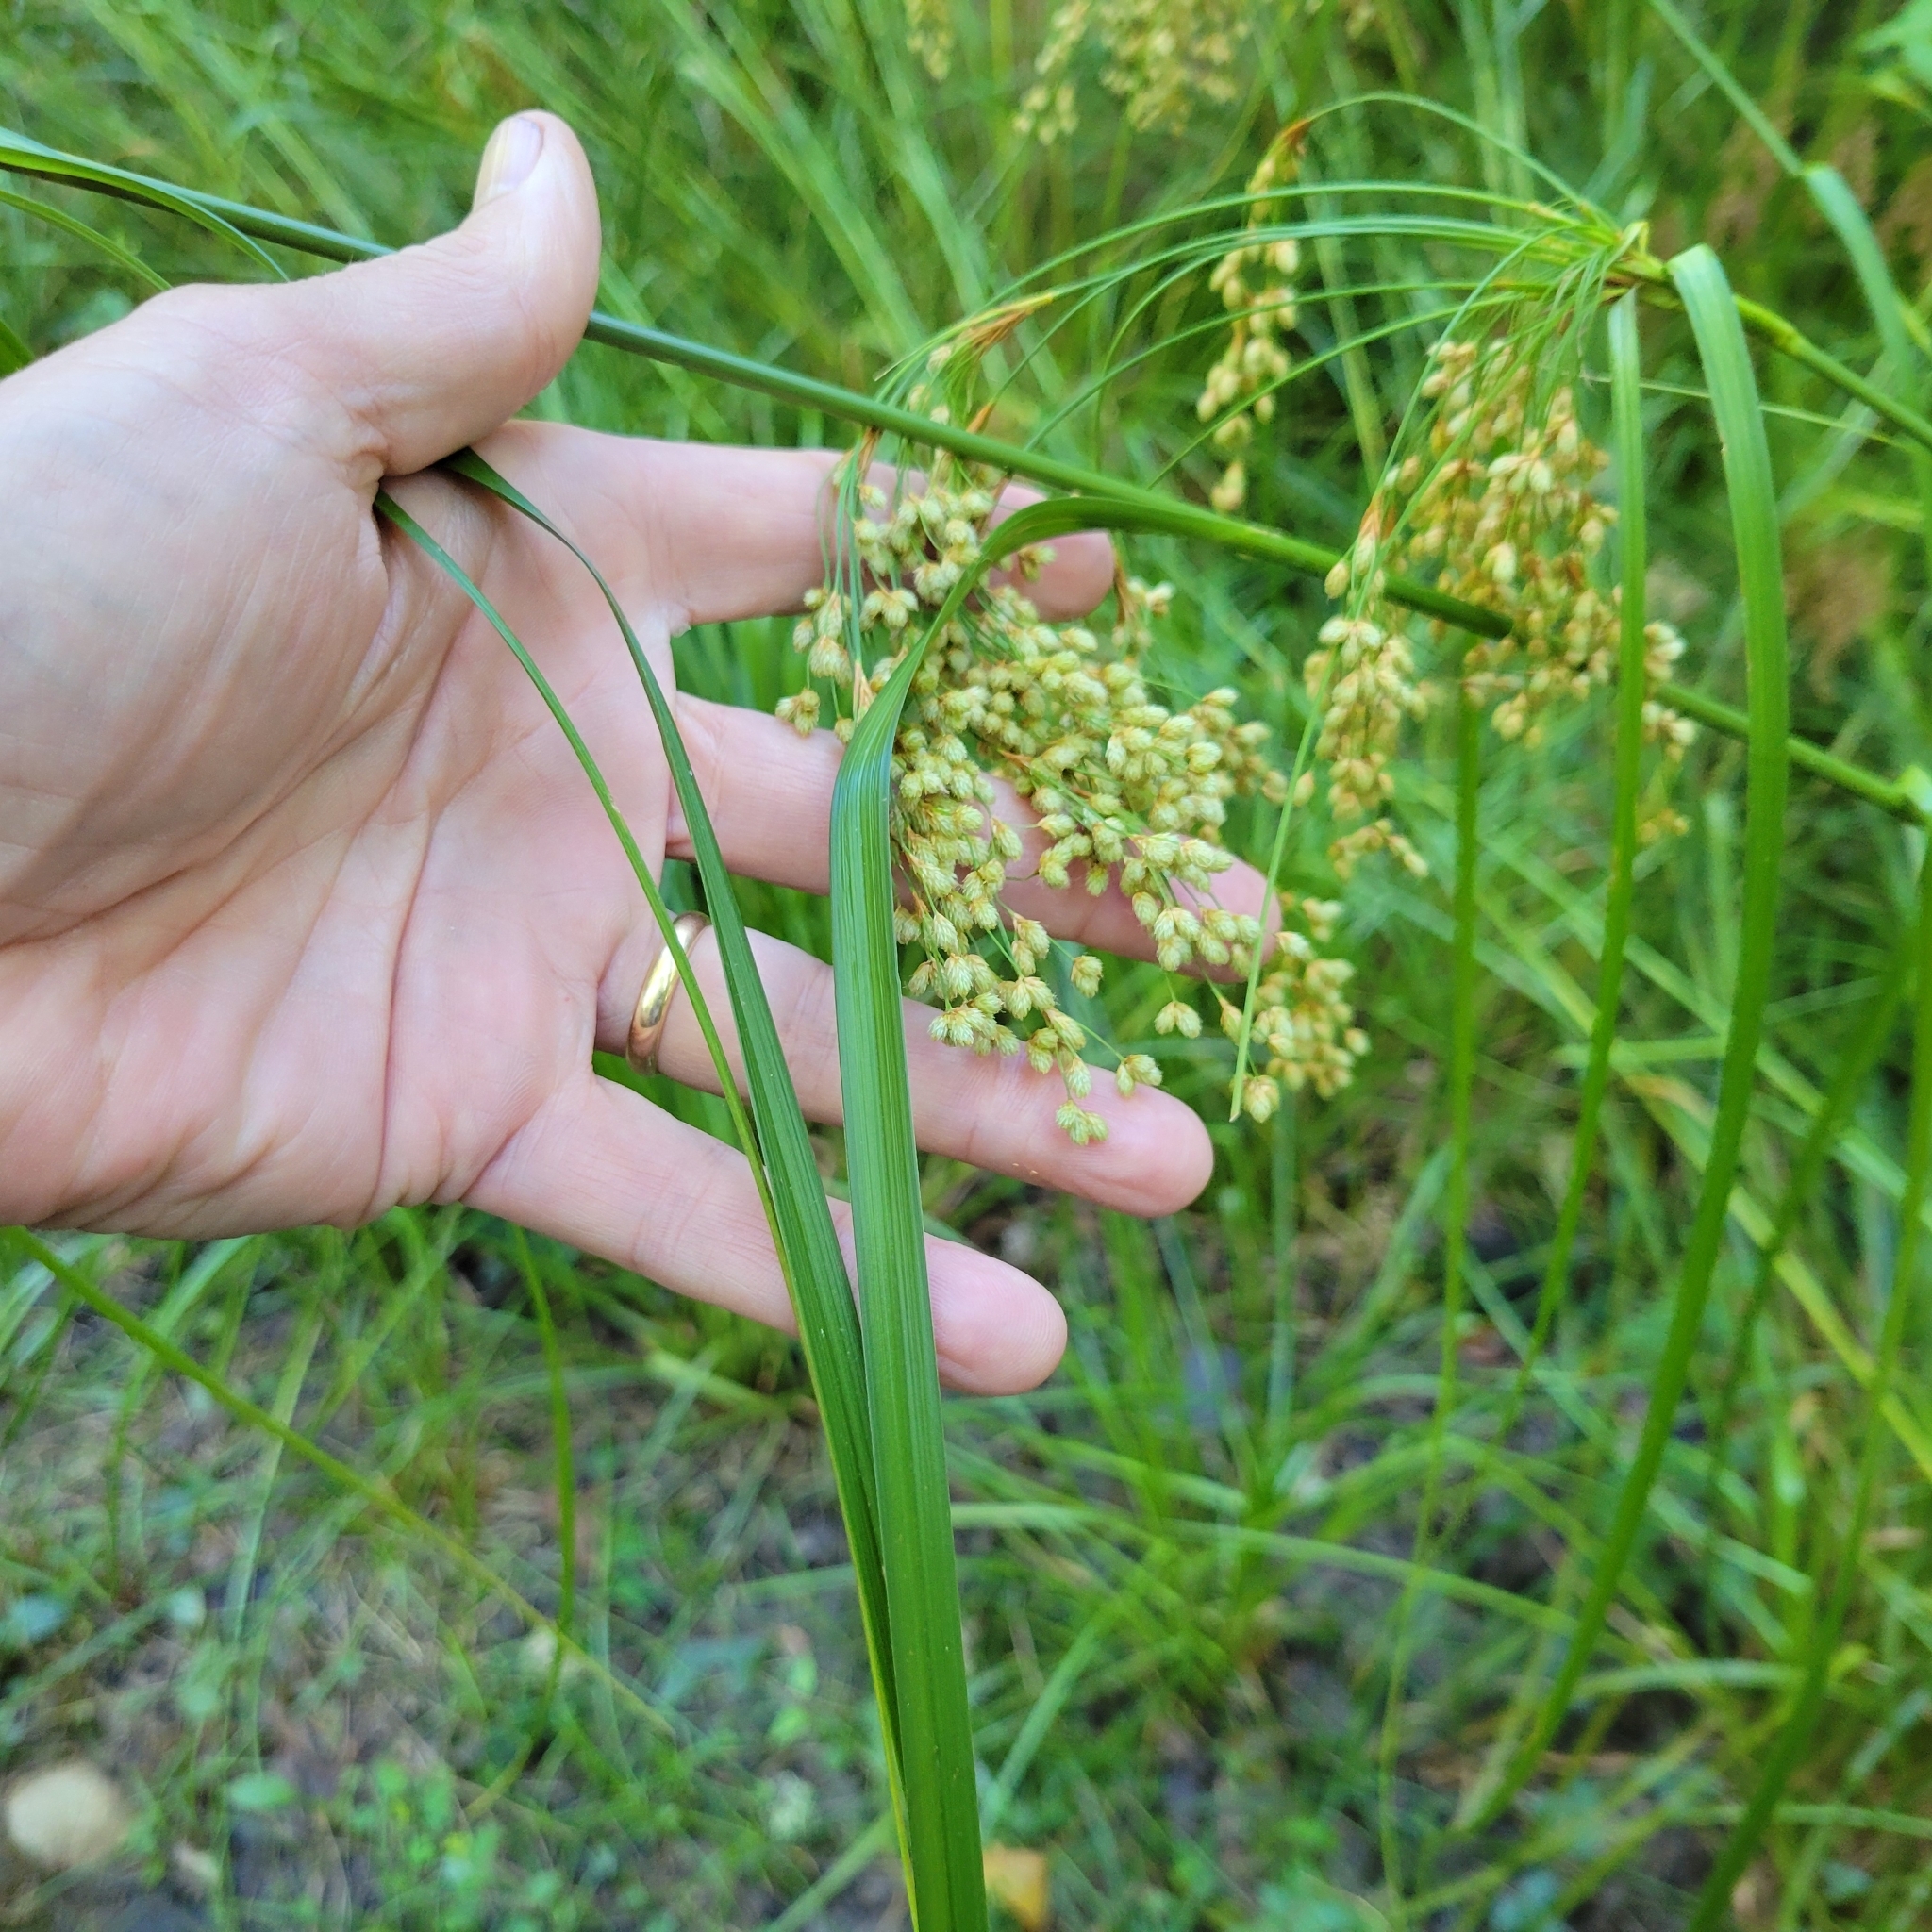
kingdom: Plantae
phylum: Tracheophyta
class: Liliopsida
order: Poales
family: Cyperaceae
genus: Scirpus
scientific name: Scirpus cyperinus
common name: Black-sheathed bulrush
